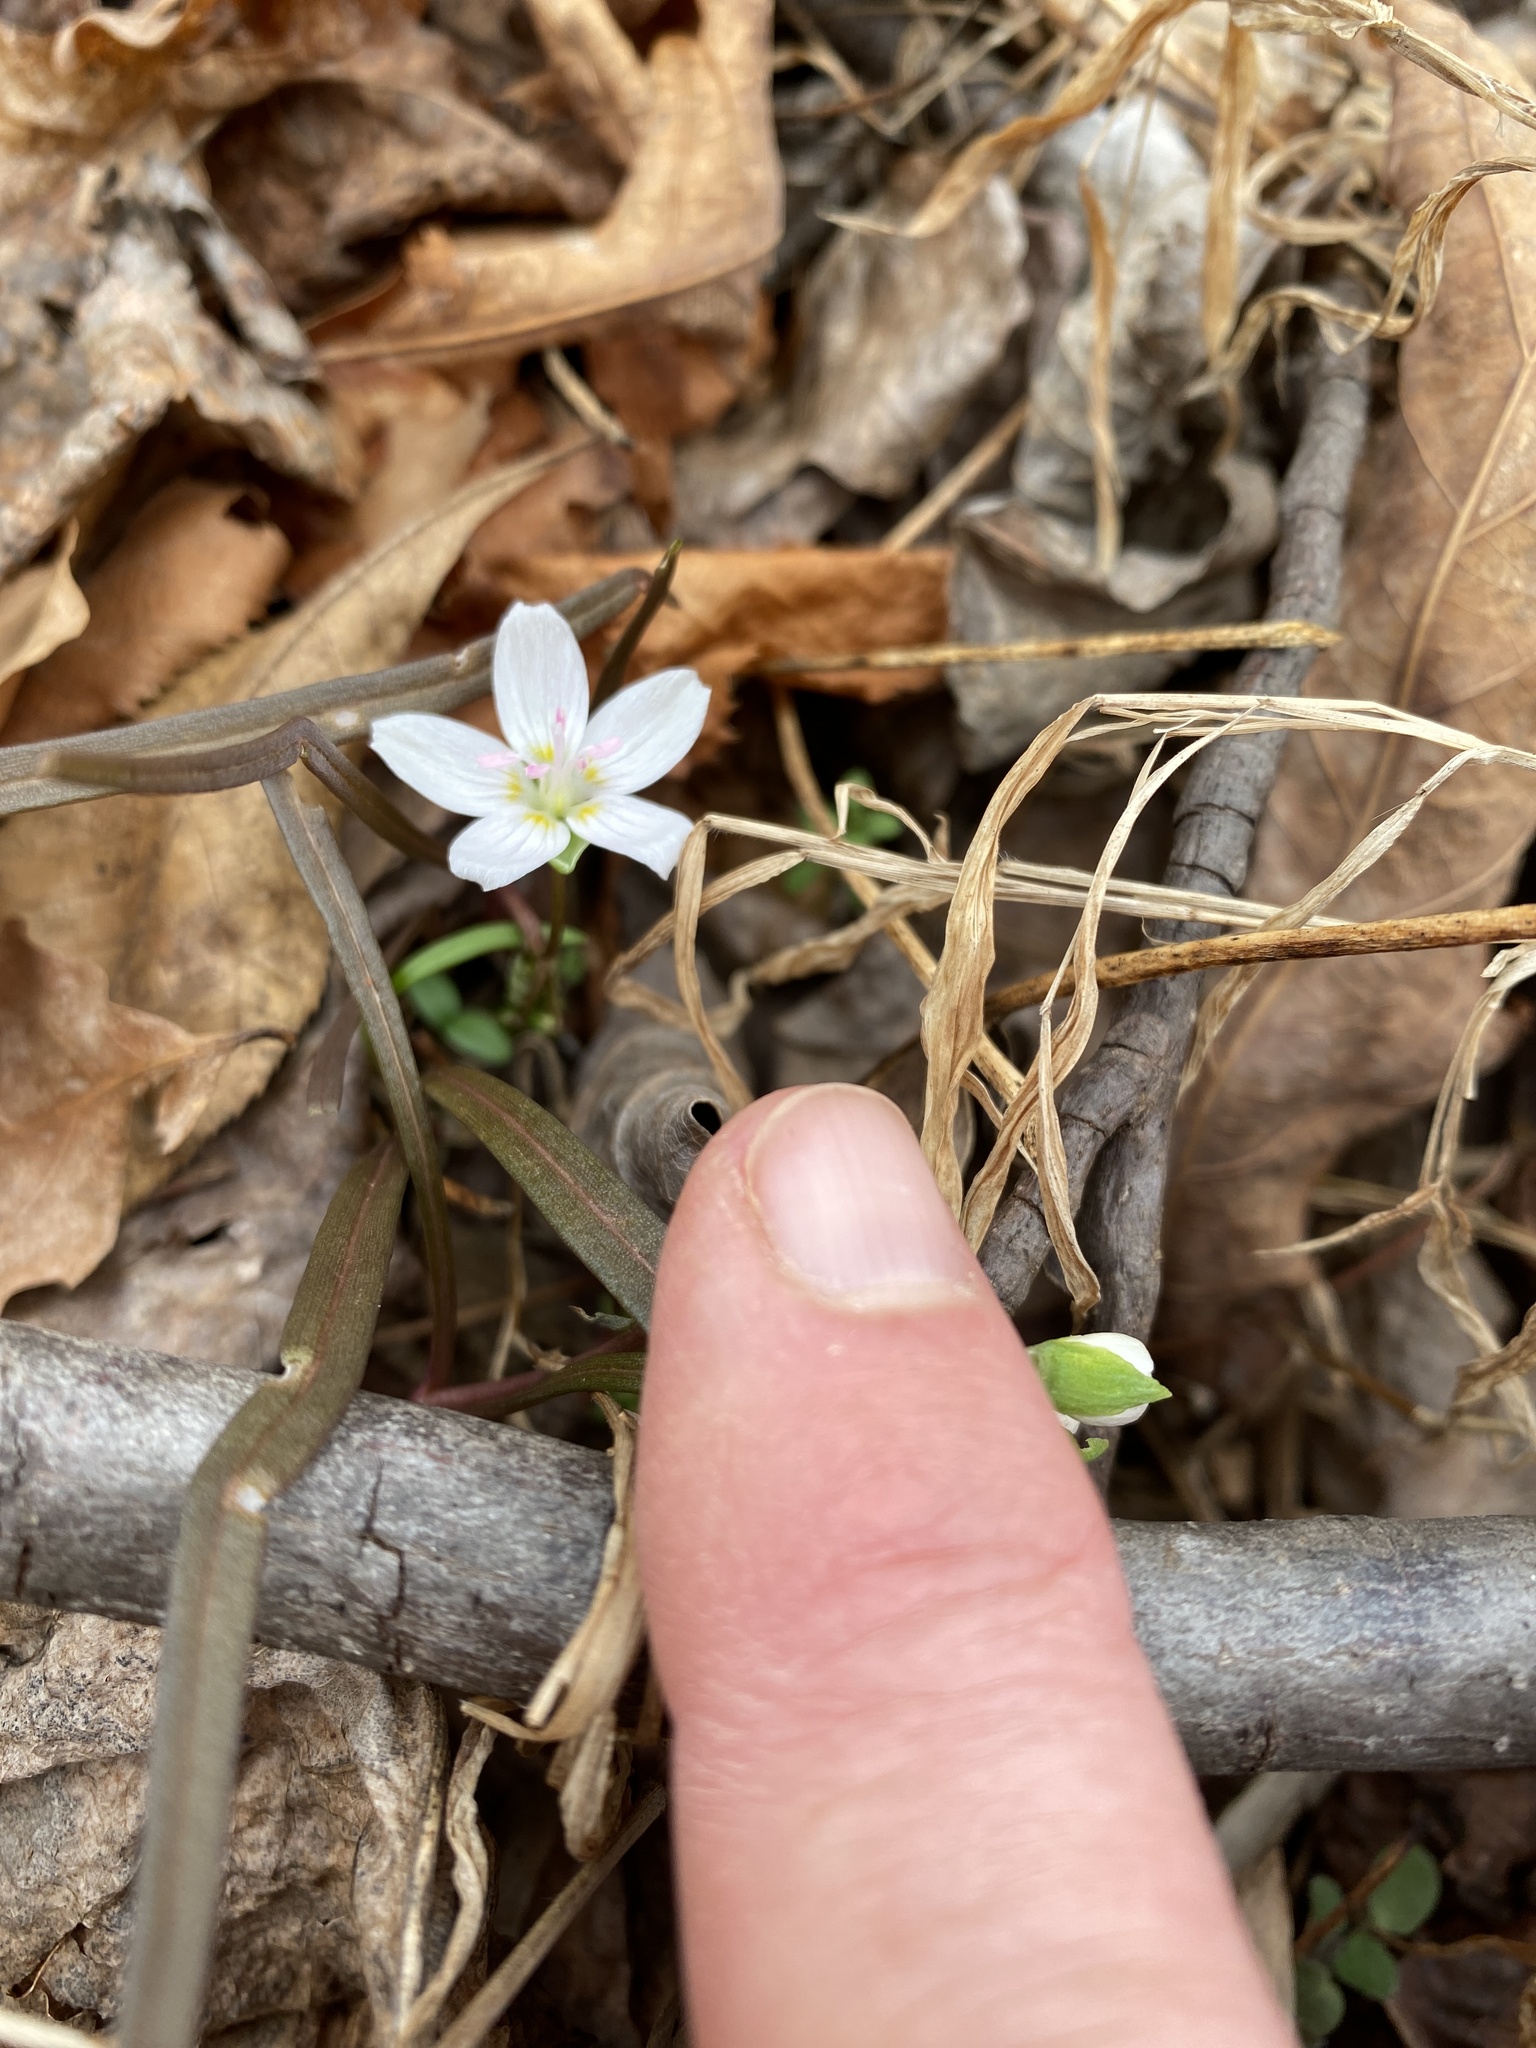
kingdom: Plantae
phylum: Tracheophyta
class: Magnoliopsida
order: Caryophyllales
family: Montiaceae
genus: Claytonia
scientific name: Claytonia virginica
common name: Virginia springbeauty
